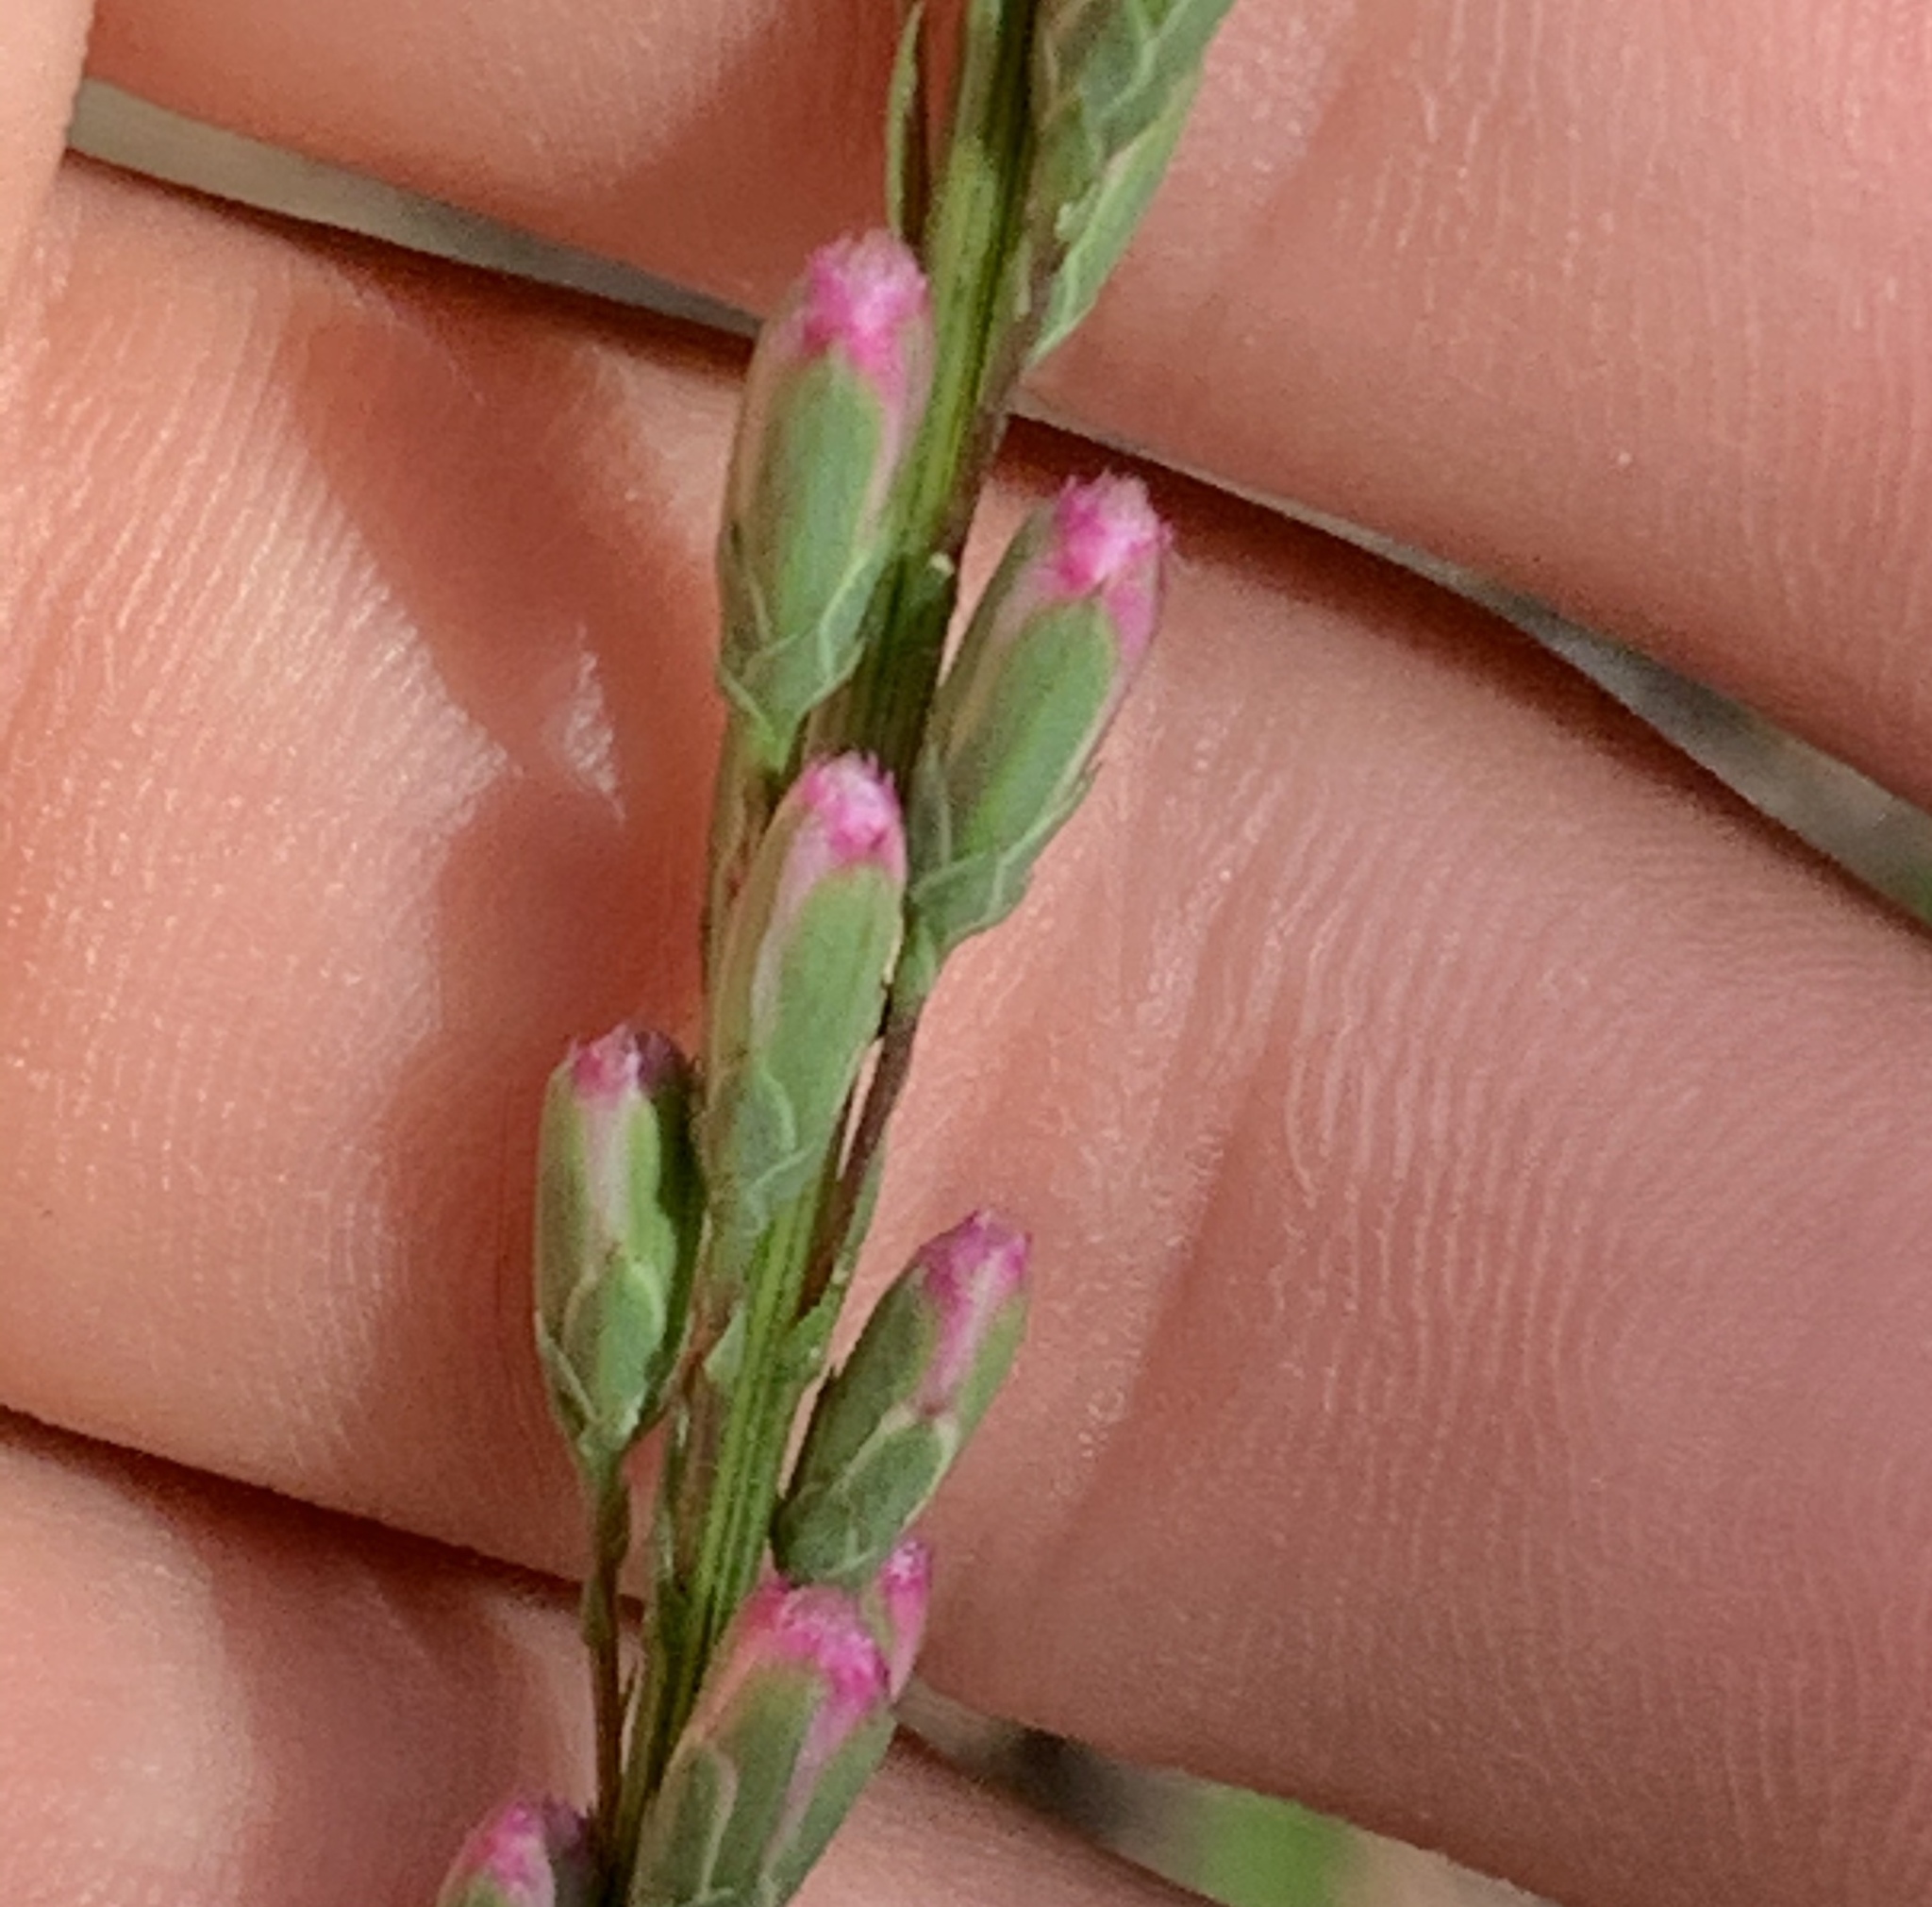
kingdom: Plantae
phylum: Tracheophyta
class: Magnoliopsida
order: Asterales
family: Asteraceae
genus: Liatris
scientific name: Liatris tenuifolia
